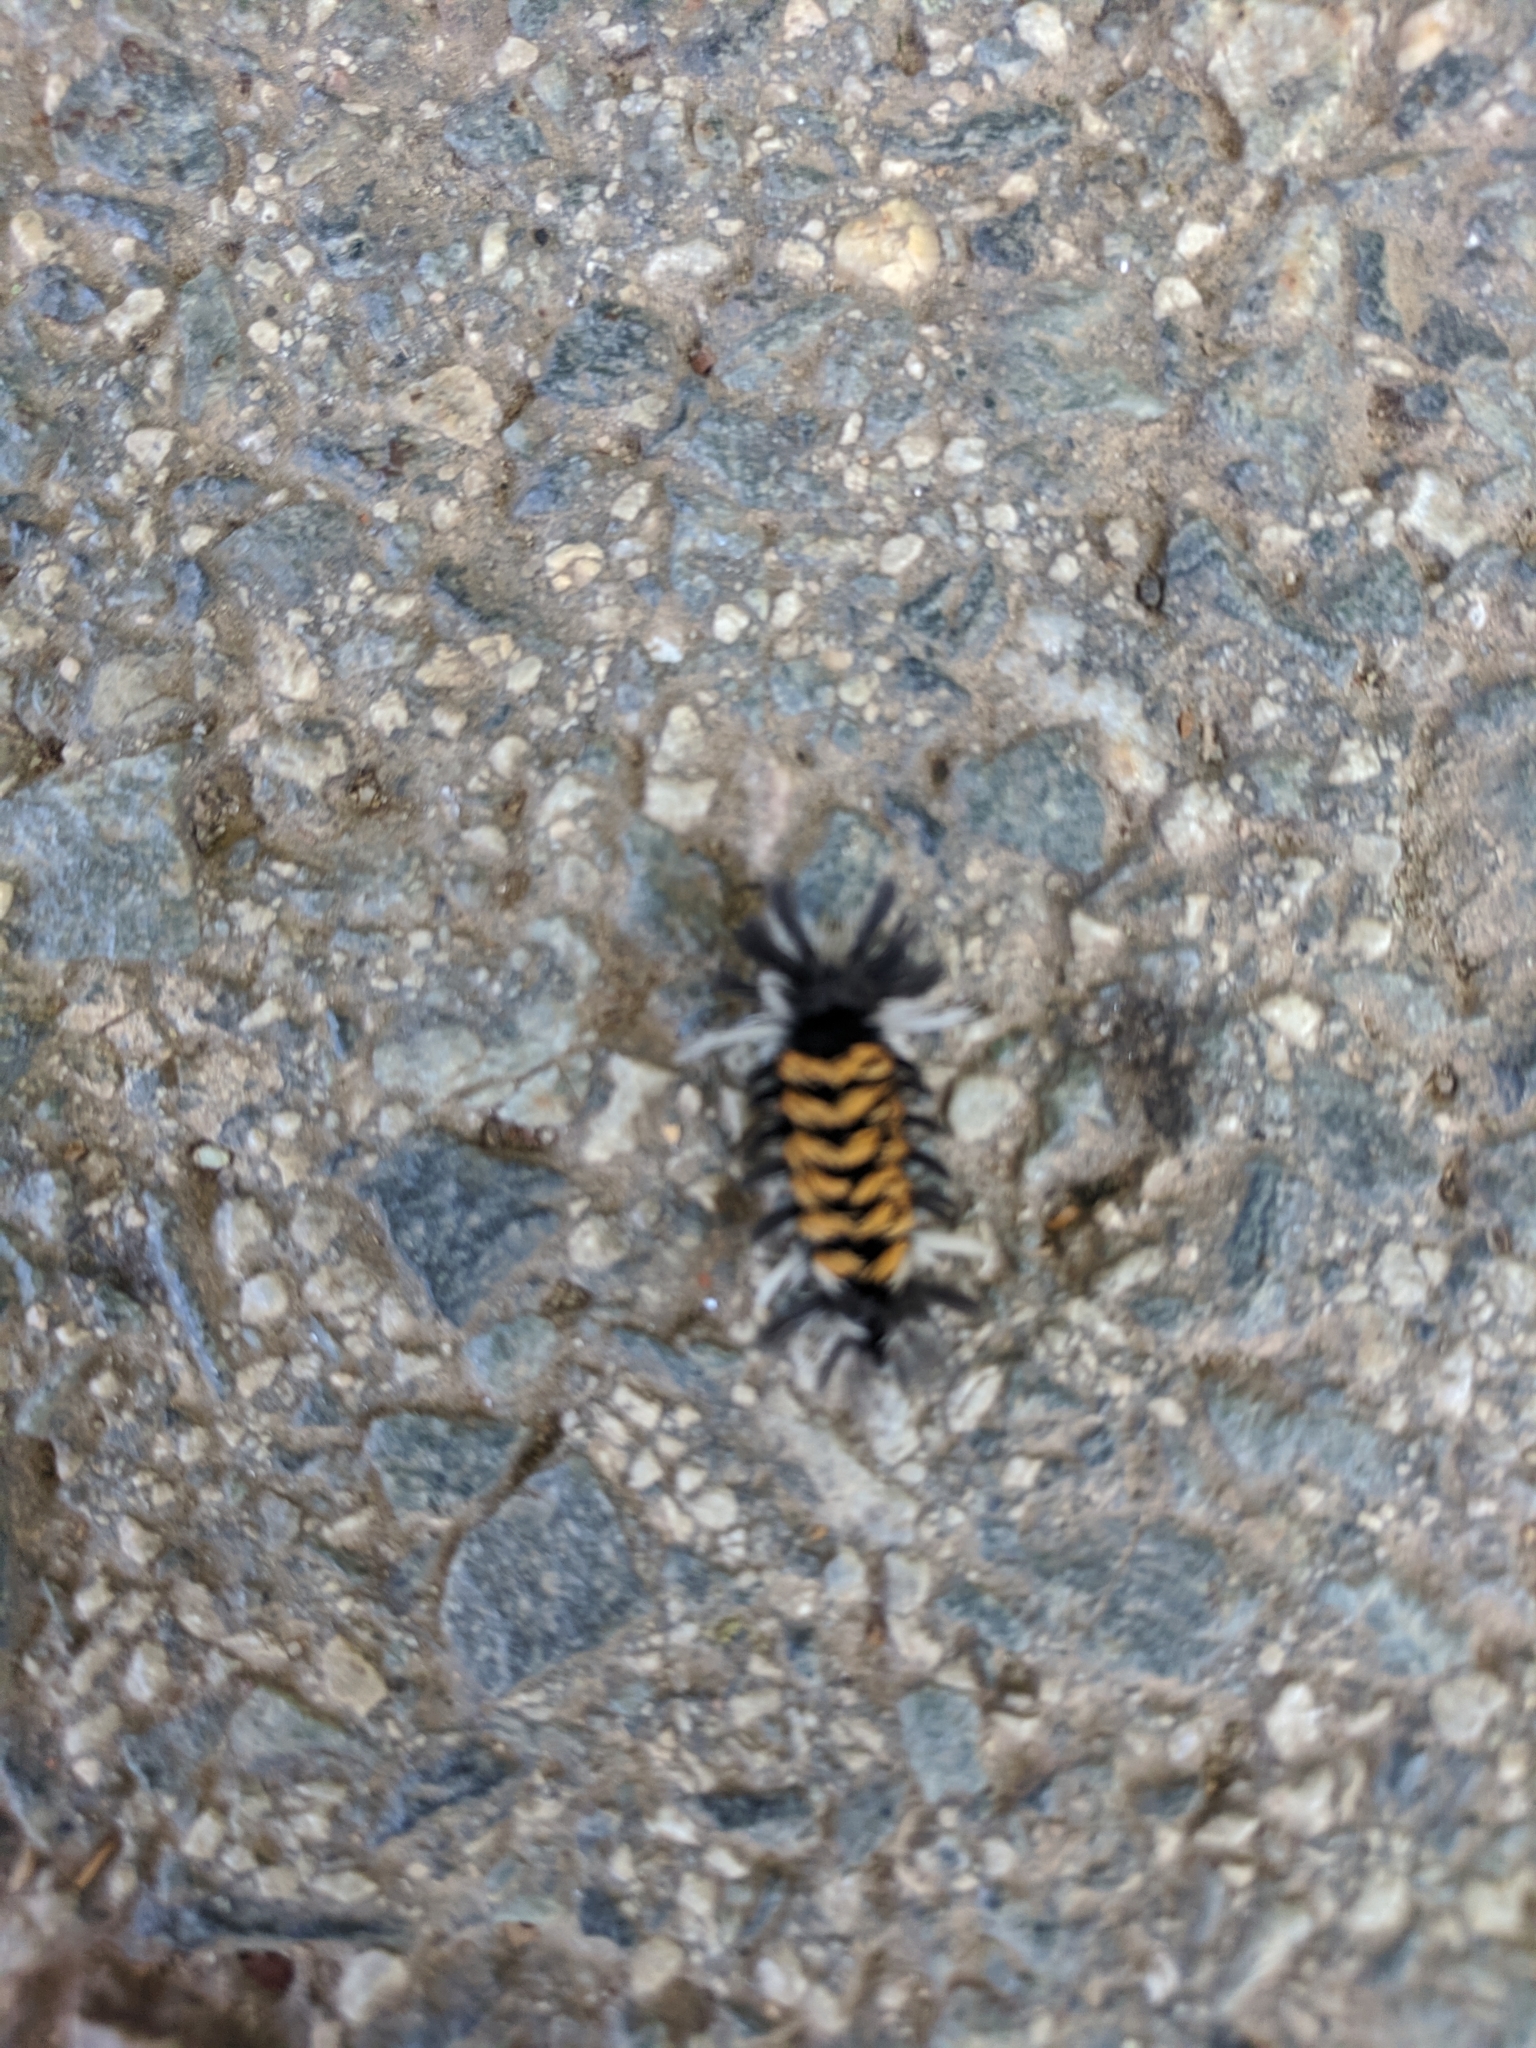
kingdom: Animalia
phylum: Arthropoda
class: Insecta
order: Lepidoptera
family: Erebidae
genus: Euchaetes
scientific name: Euchaetes egle
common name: Milkweed tussock moth
